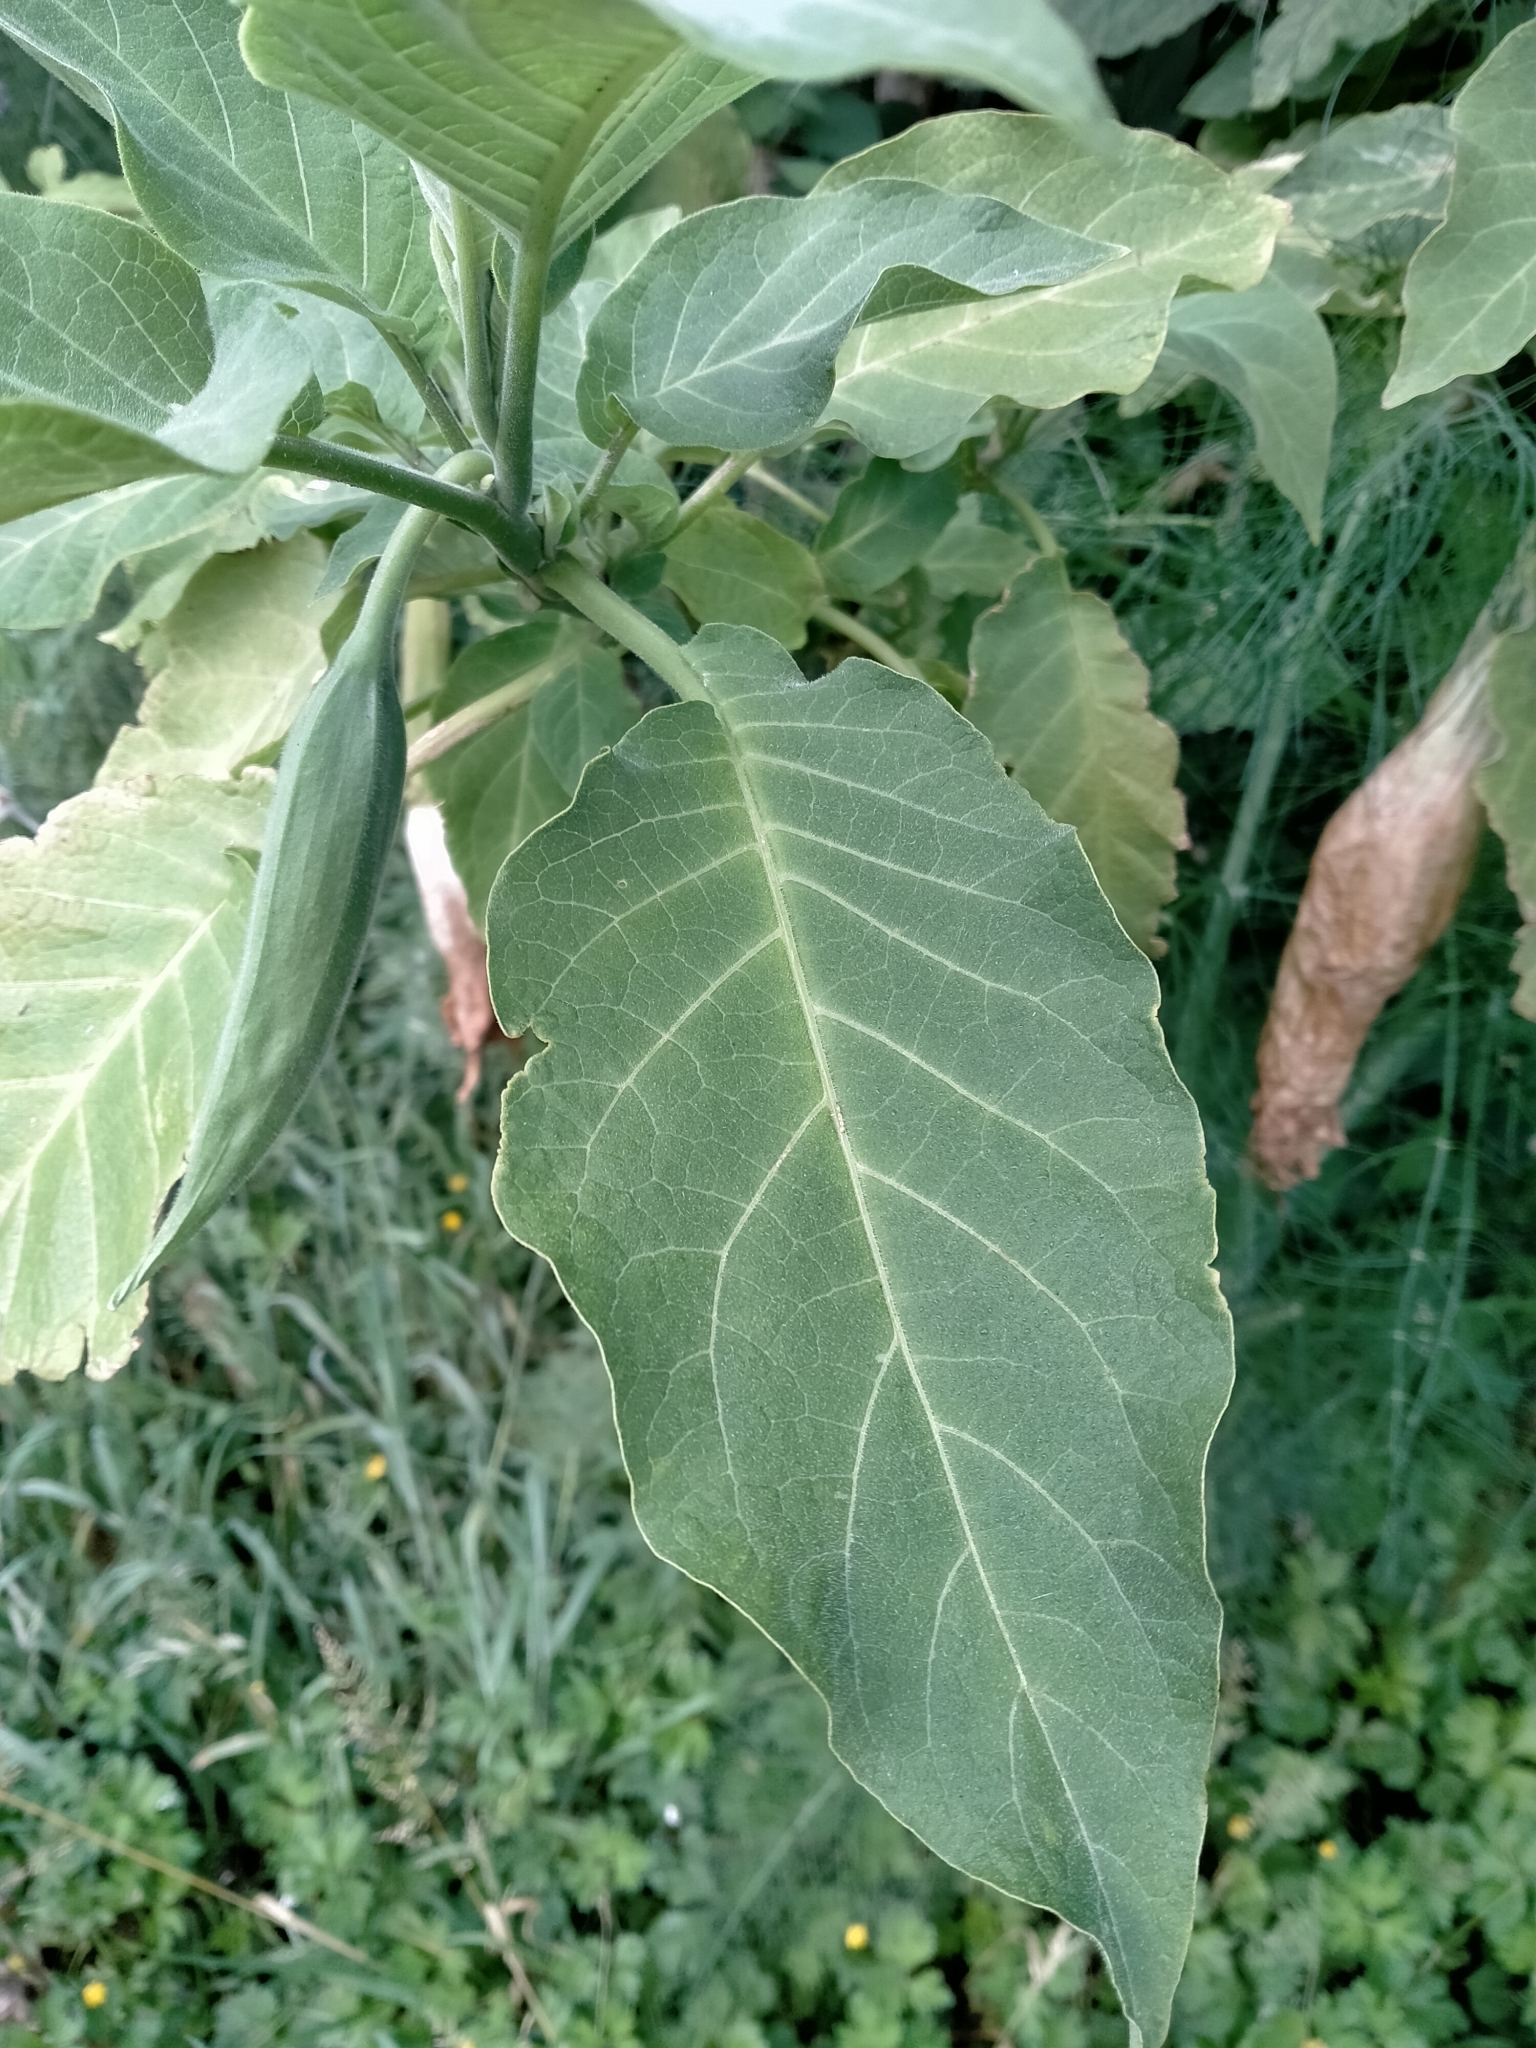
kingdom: Plantae
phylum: Tracheophyta
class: Magnoliopsida
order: Solanales
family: Solanaceae
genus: Brugmansia
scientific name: Brugmansia arborea
